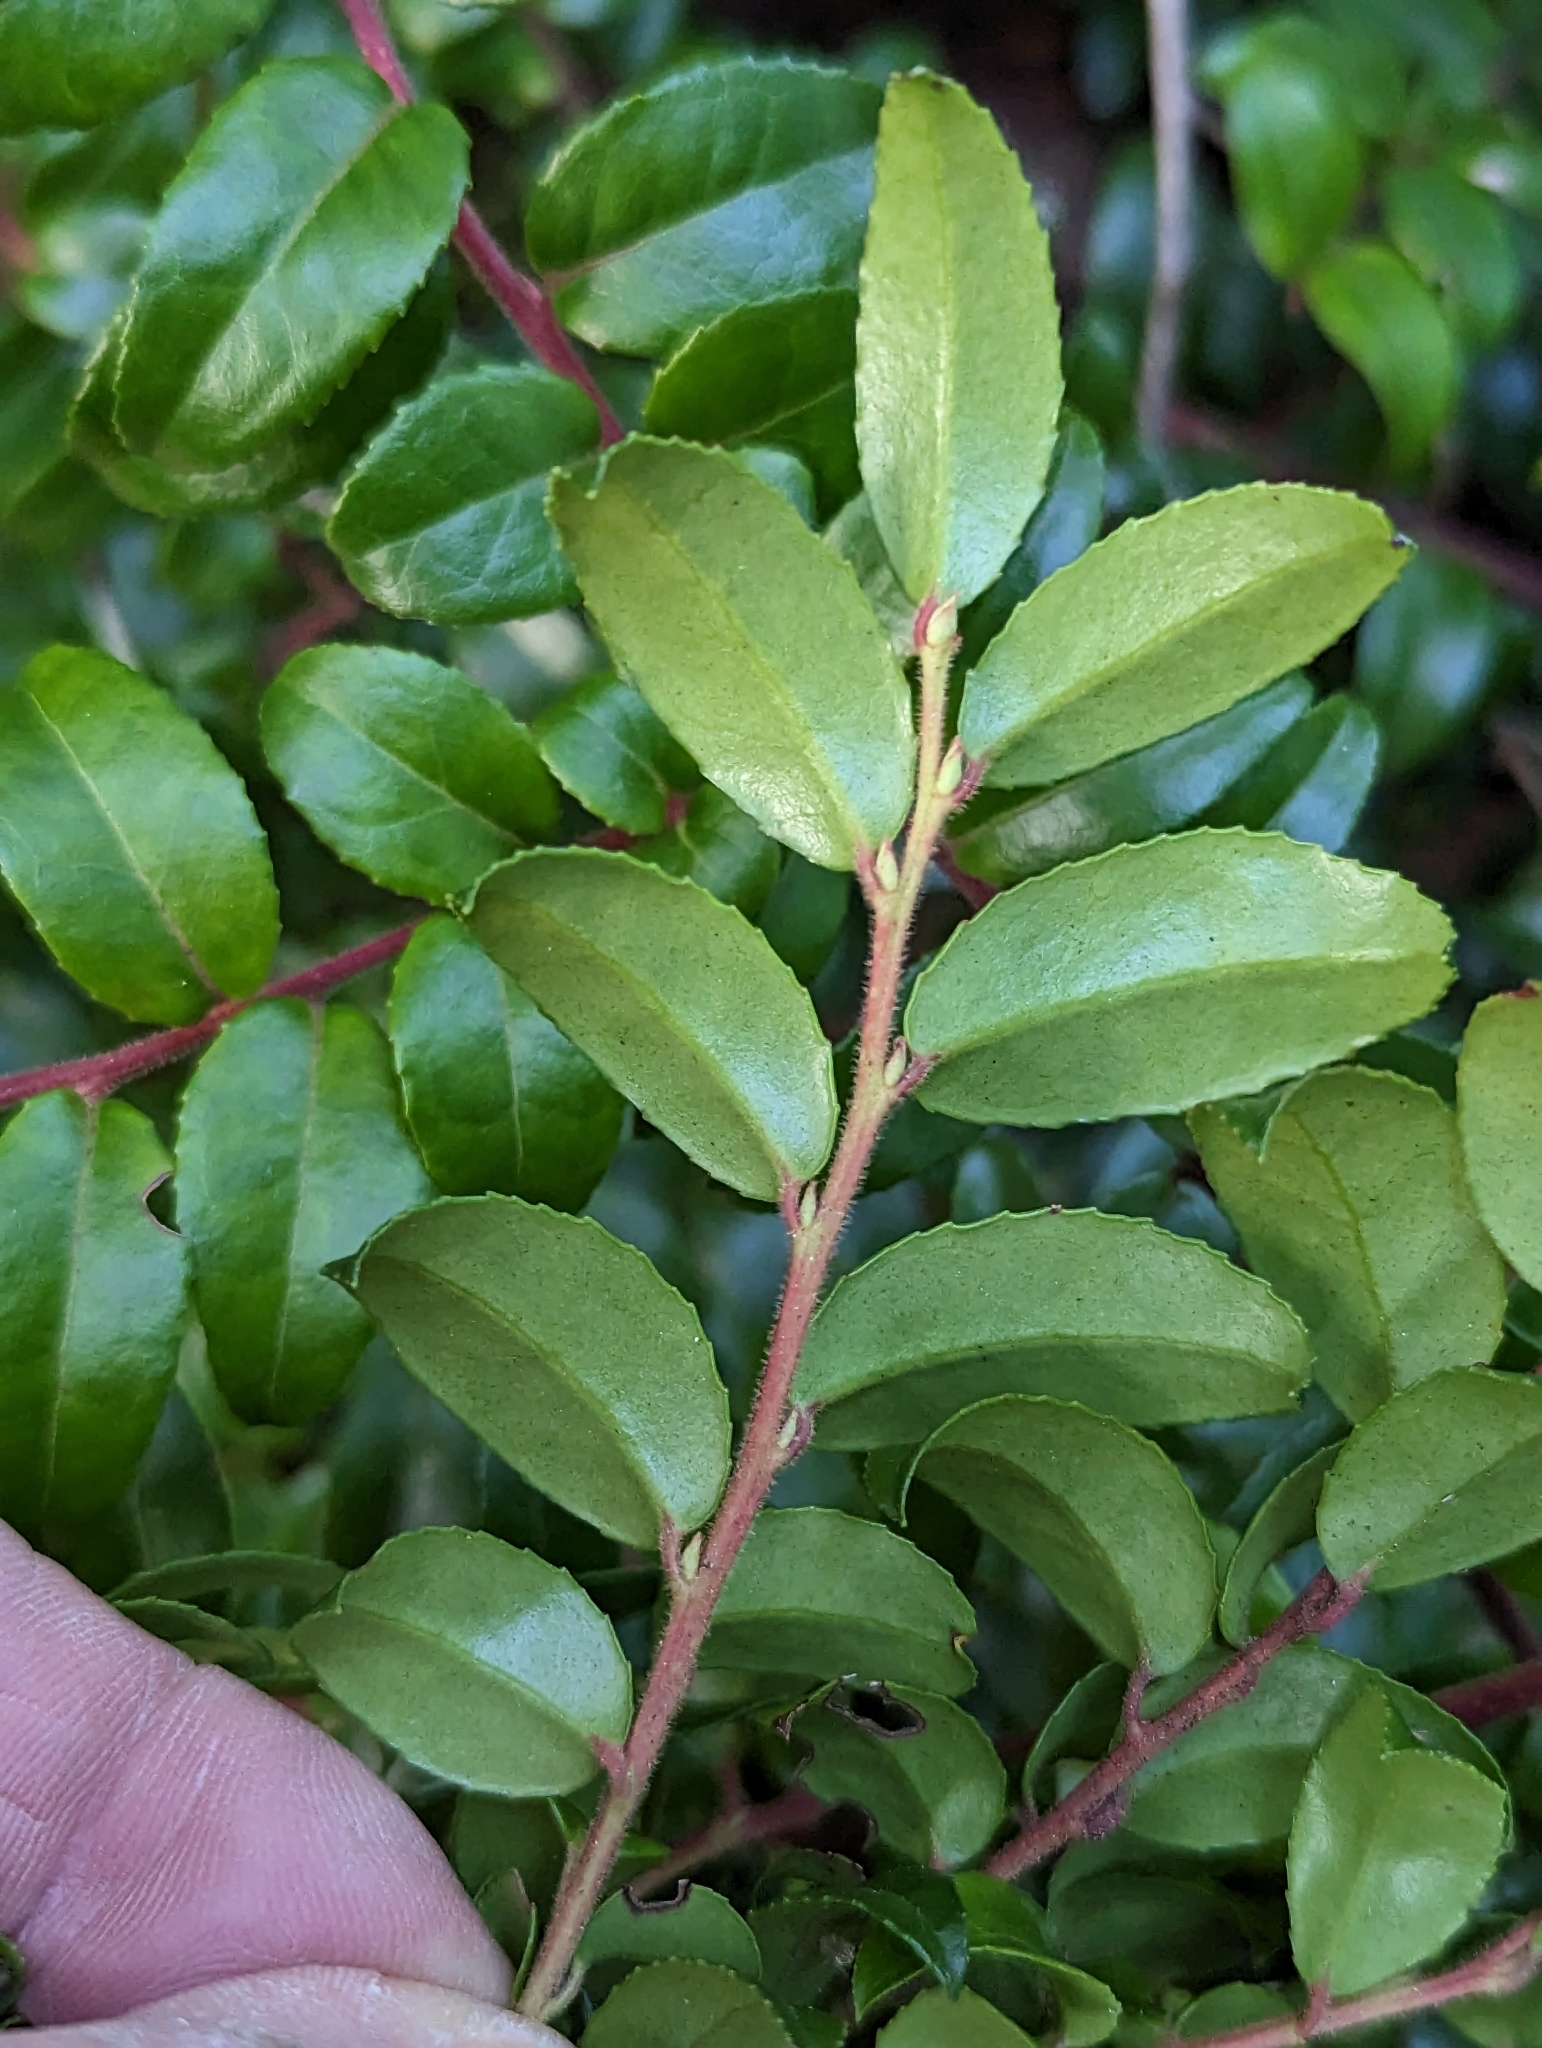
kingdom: Plantae
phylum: Tracheophyta
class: Magnoliopsida
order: Ericales
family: Ericaceae
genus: Vaccinium
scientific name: Vaccinium ovatum
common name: California-huckleberry
